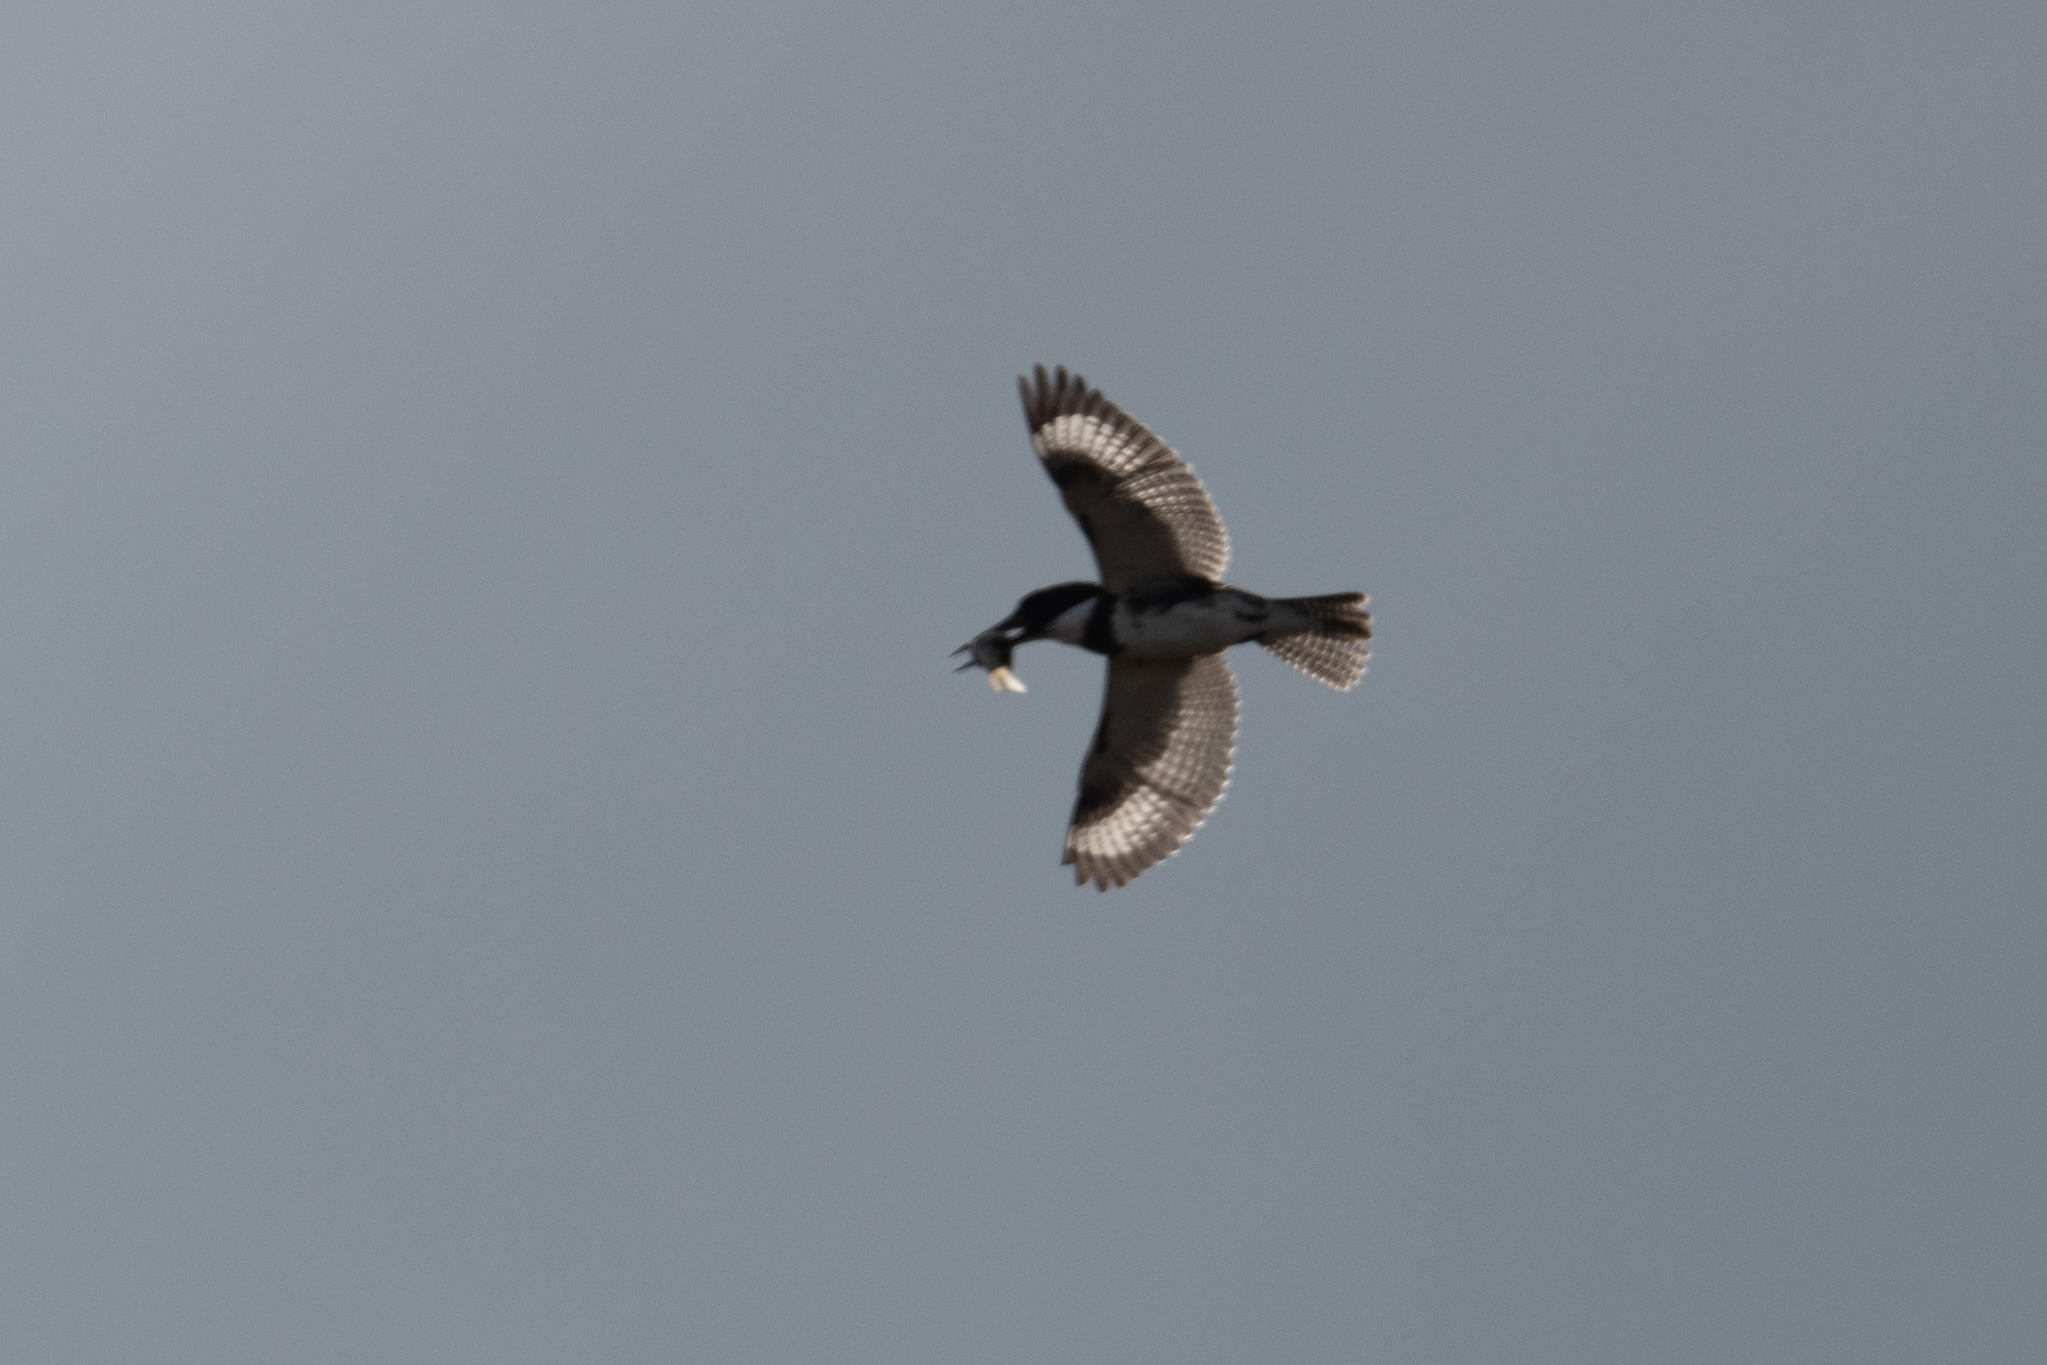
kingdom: Animalia
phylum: Chordata
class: Aves
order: Coraciiformes
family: Alcedinidae
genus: Megaceryle
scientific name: Megaceryle alcyon
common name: Belted kingfisher
